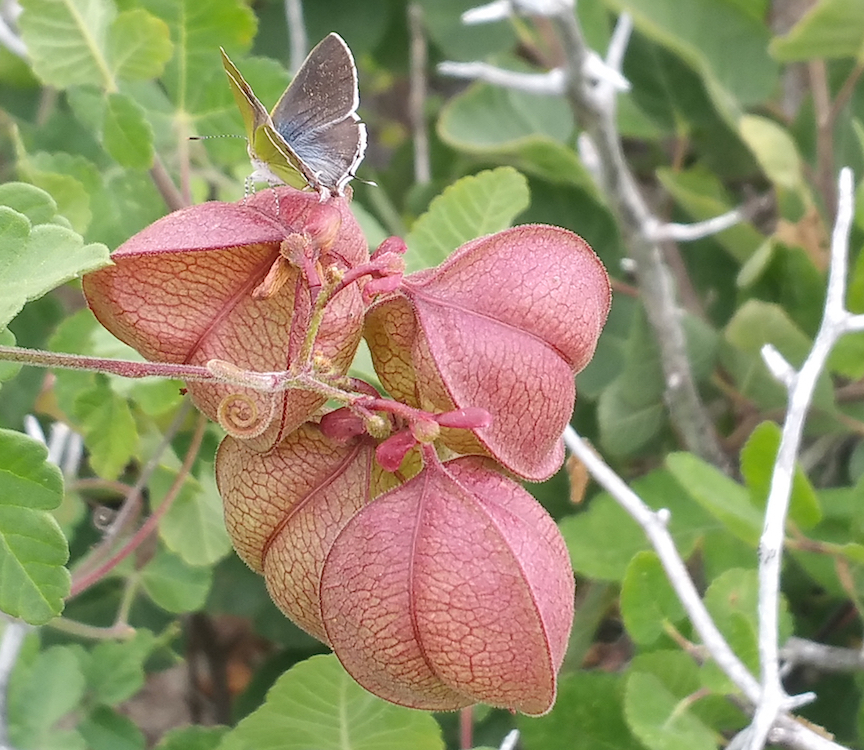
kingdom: Plantae
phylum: Tracheophyta
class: Magnoliopsida
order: Sapindales
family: Sapindaceae
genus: Cardiospermum
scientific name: Cardiospermum corindum
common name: Faux persil
